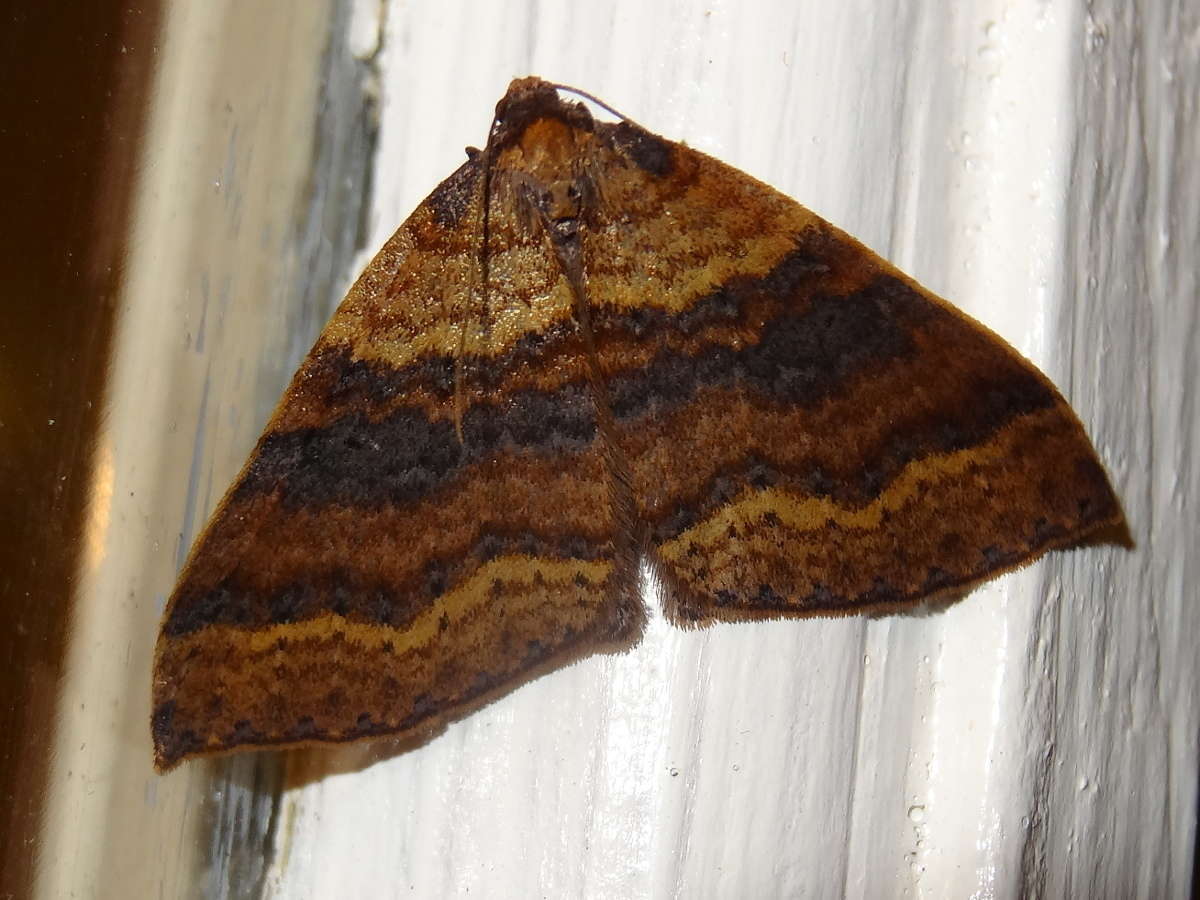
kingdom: Animalia
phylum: Arthropoda
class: Insecta
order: Lepidoptera
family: Geometridae
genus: Larentia
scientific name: Larentia apotoma
